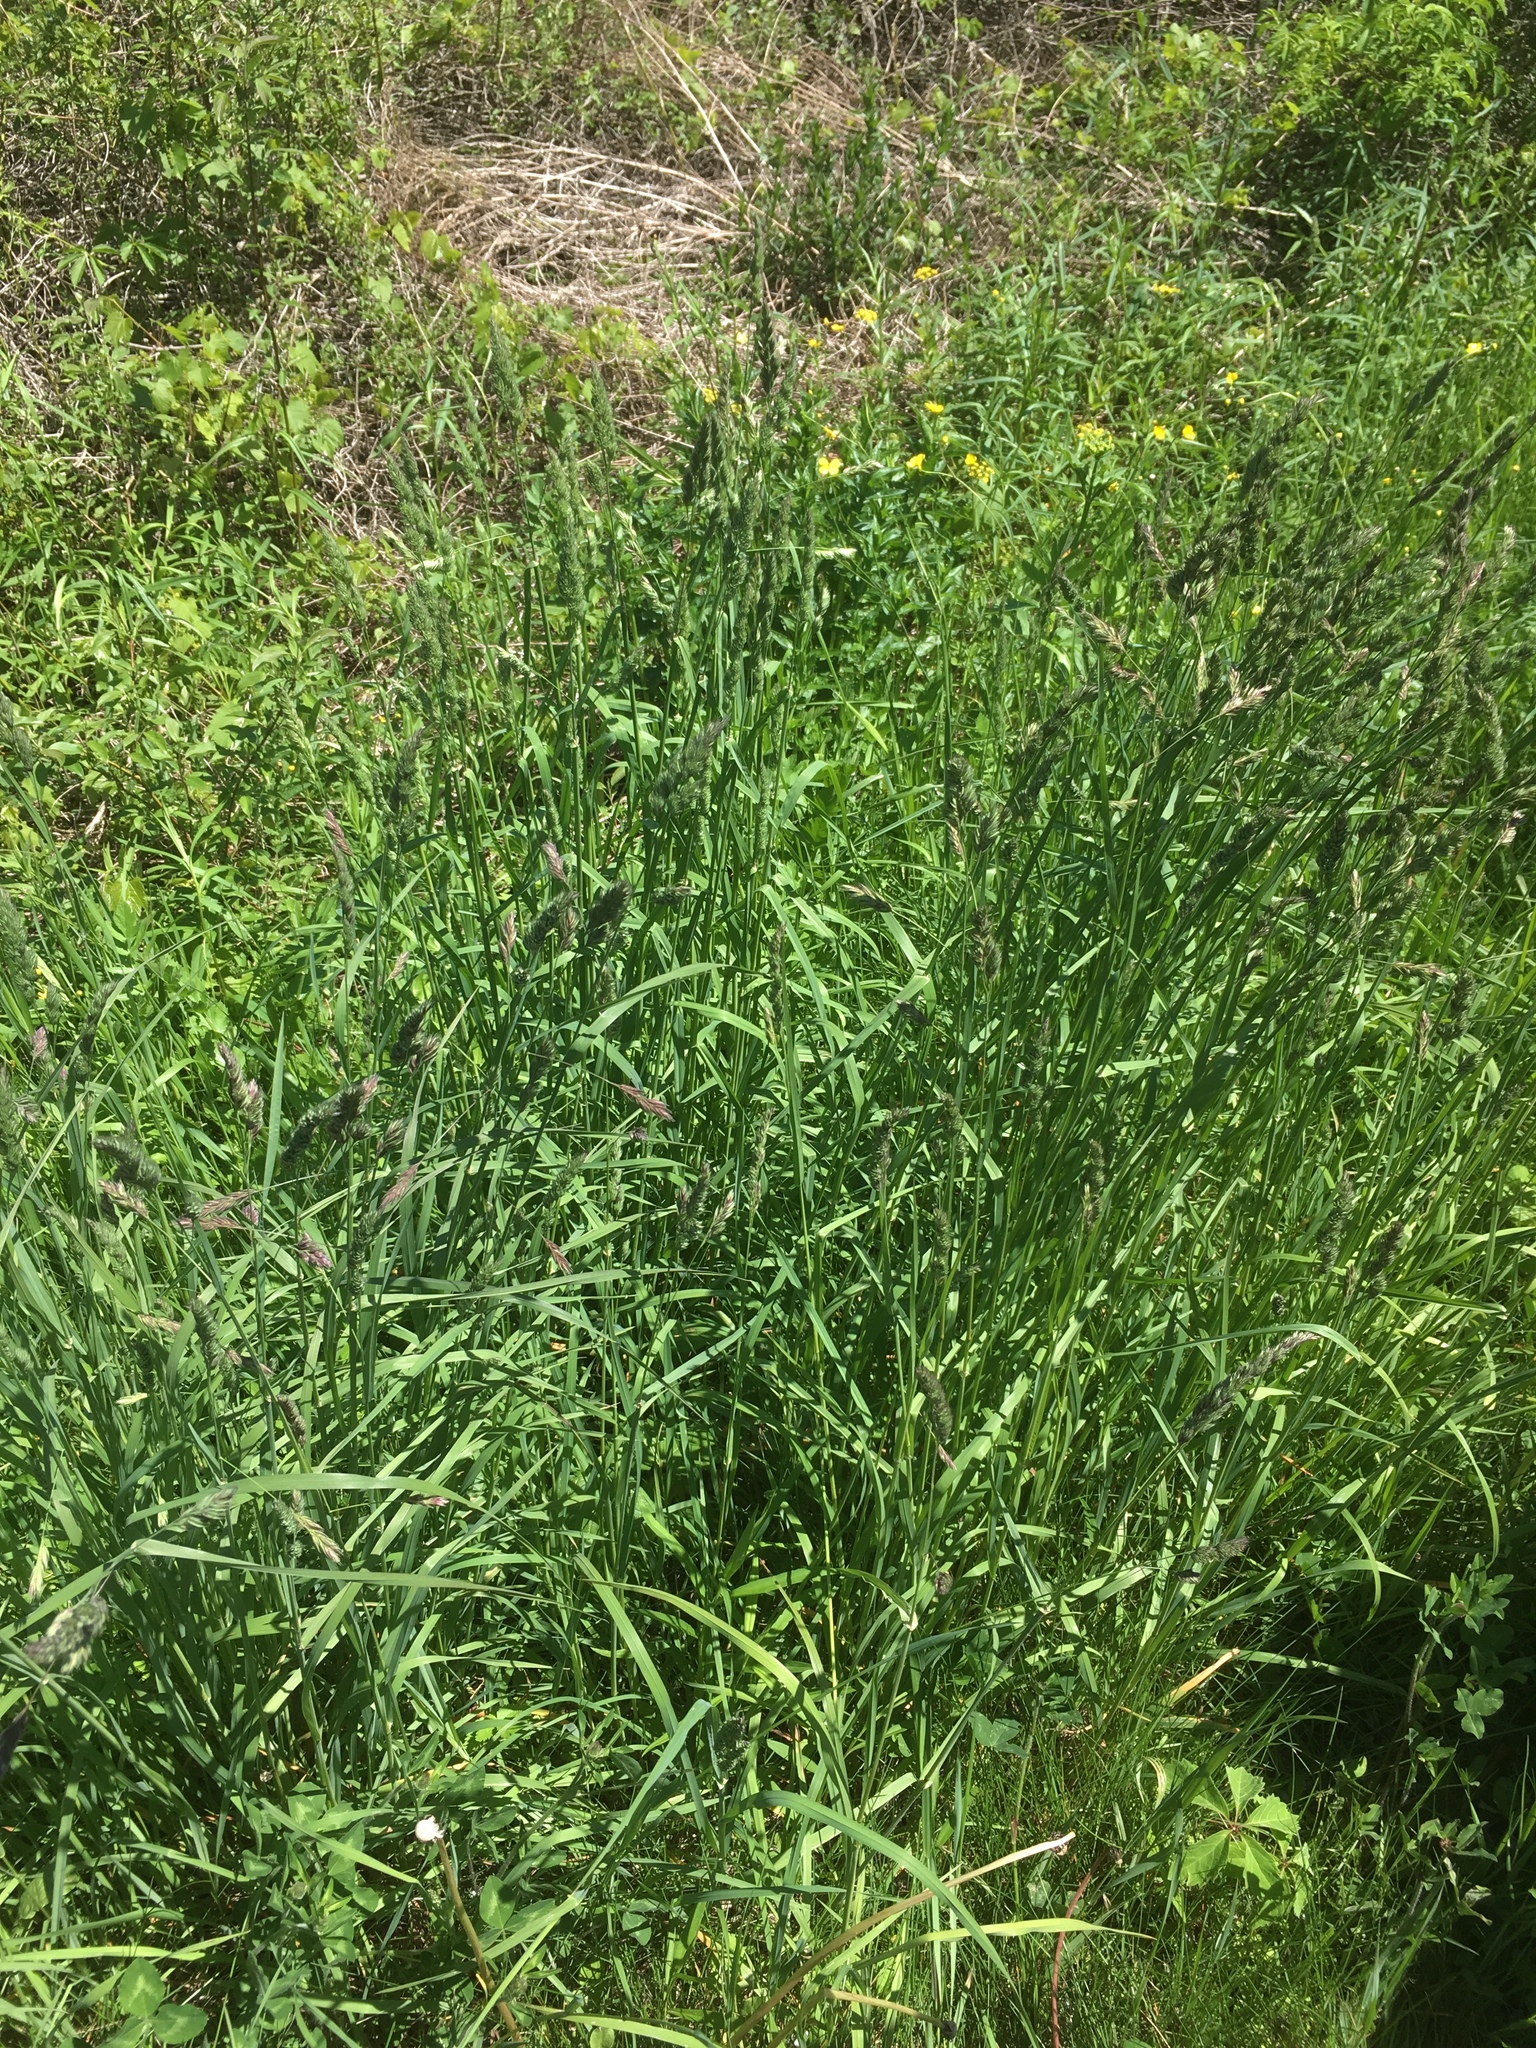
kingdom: Plantae
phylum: Tracheophyta
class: Liliopsida
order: Poales
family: Poaceae
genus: Dactylis
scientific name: Dactylis glomerata
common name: Orchardgrass
